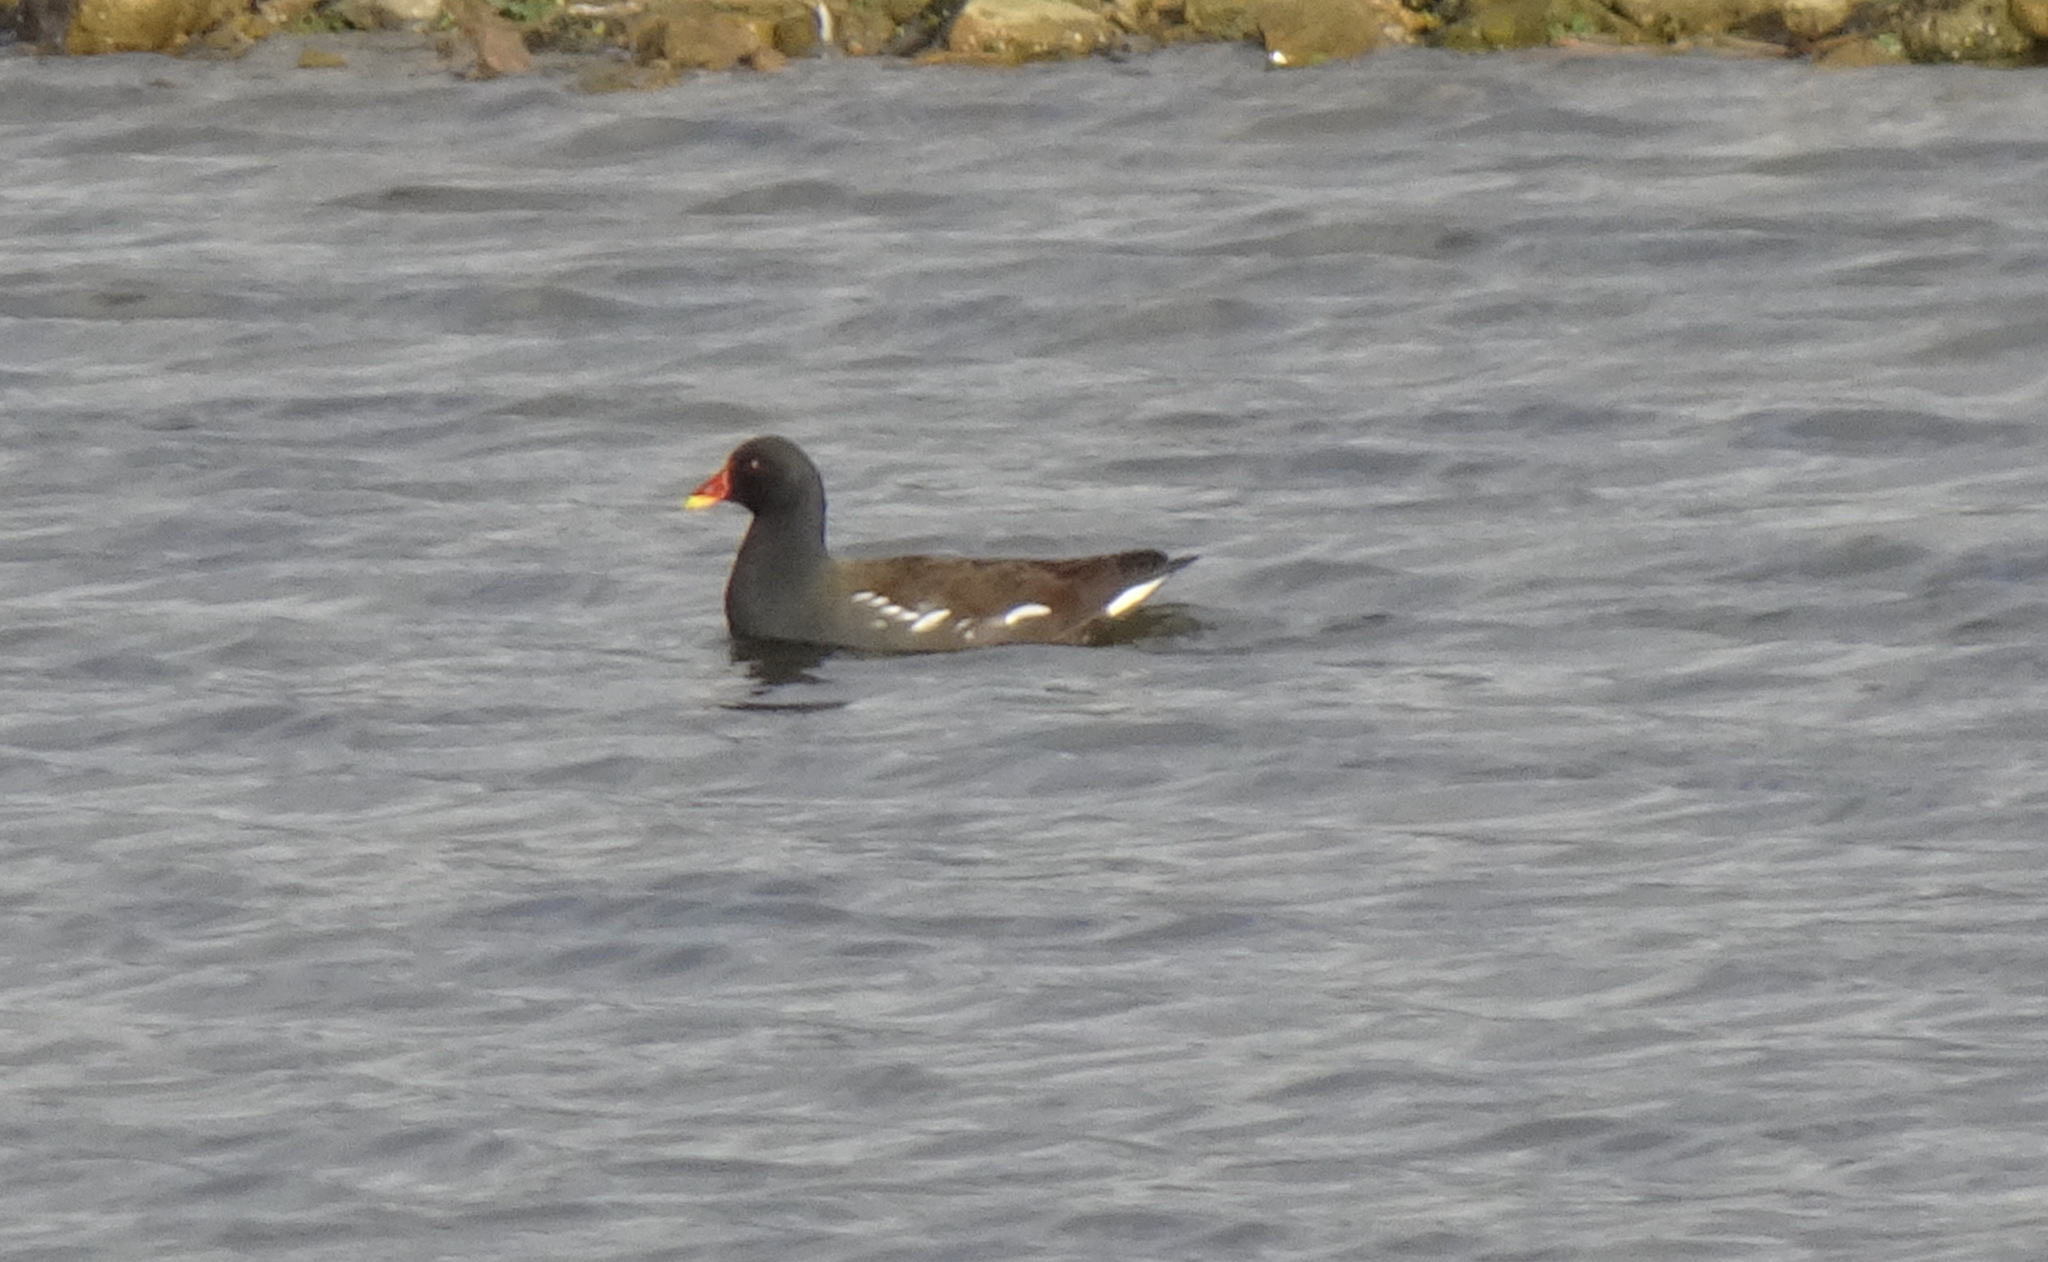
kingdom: Animalia
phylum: Chordata
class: Aves
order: Gruiformes
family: Rallidae
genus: Gallinula
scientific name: Gallinula chloropus
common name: Common moorhen
